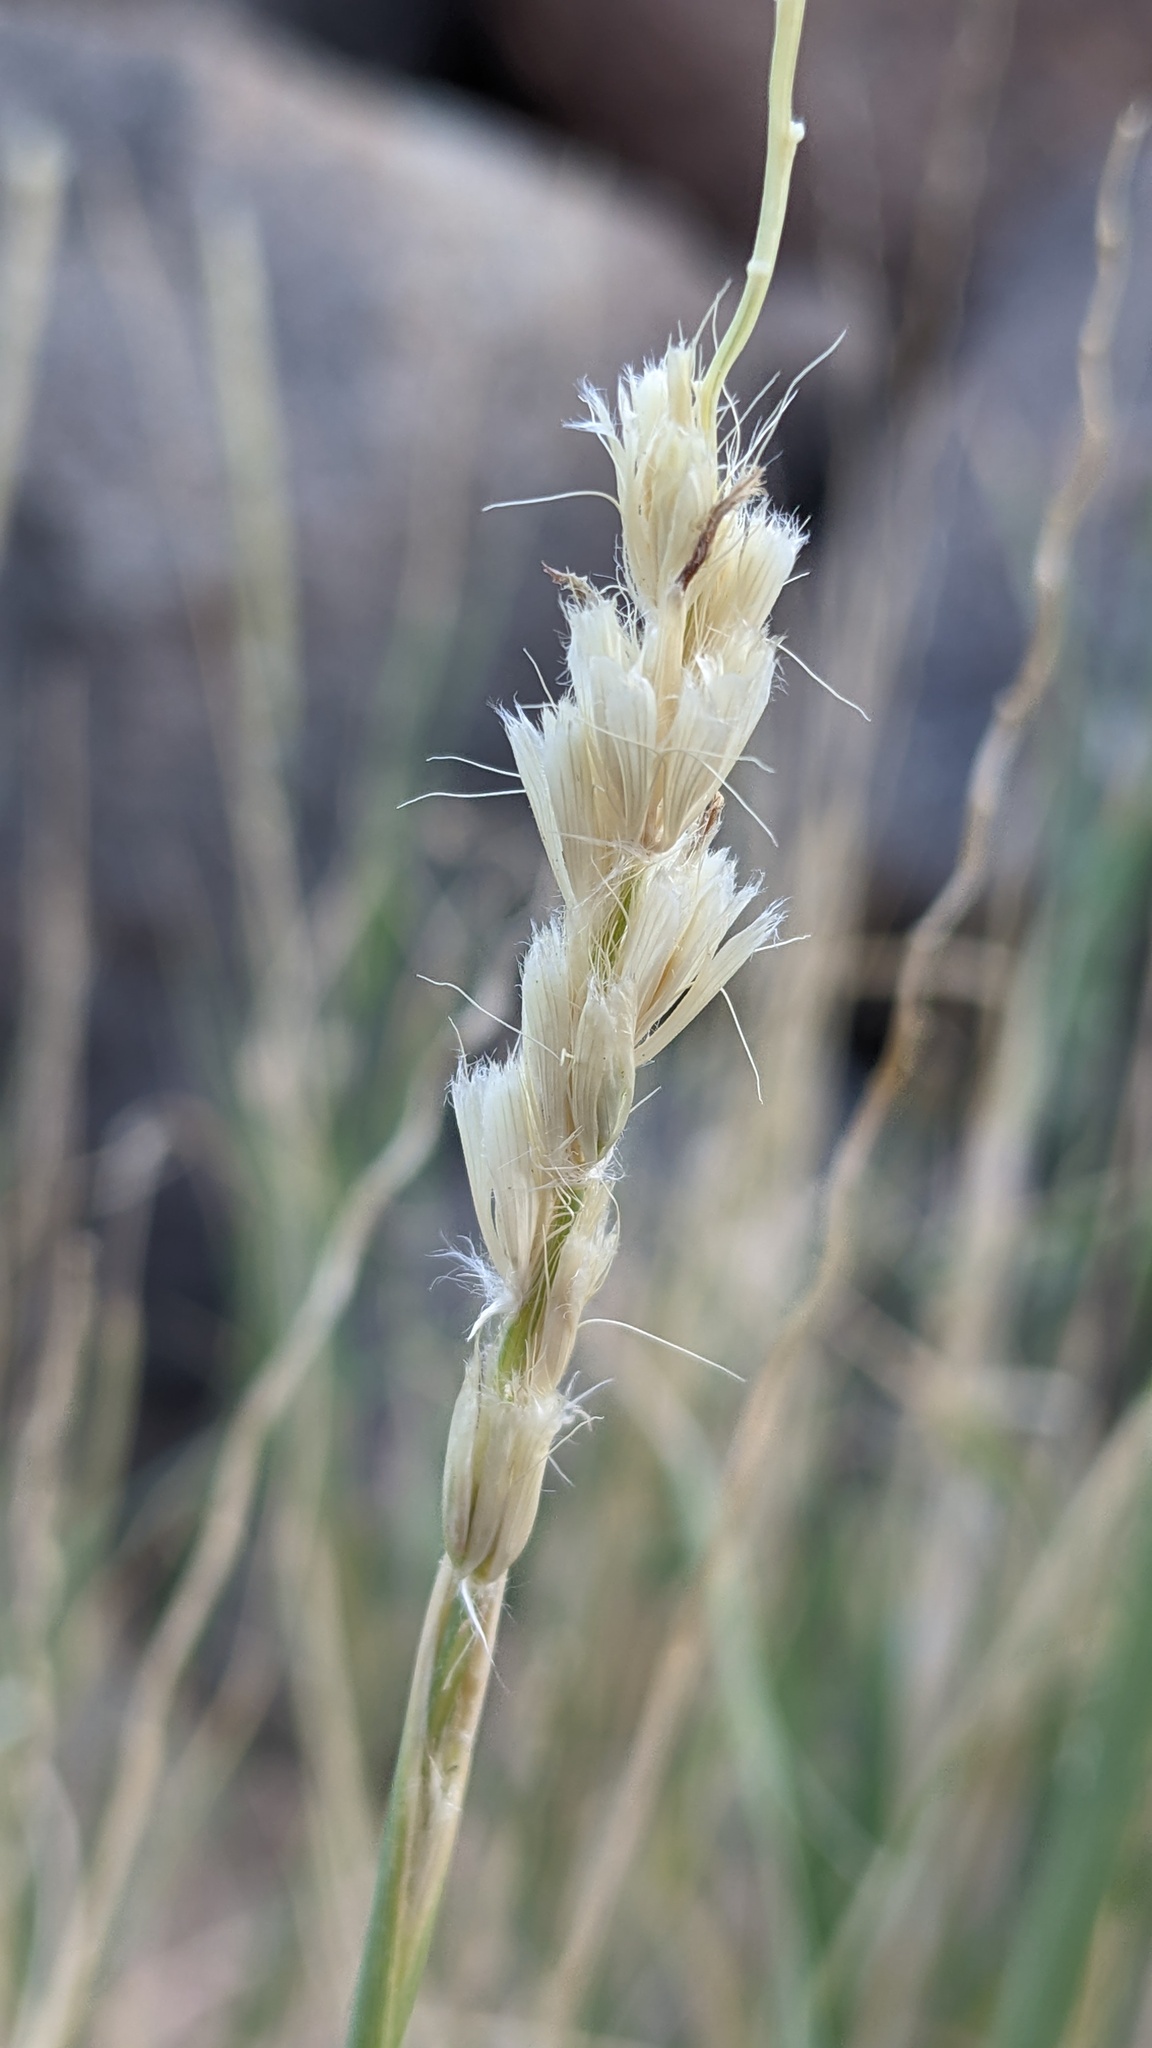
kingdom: Plantae
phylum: Tracheophyta
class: Liliopsida
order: Poales
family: Poaceae
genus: Hilaria
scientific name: Hilaria rigida
